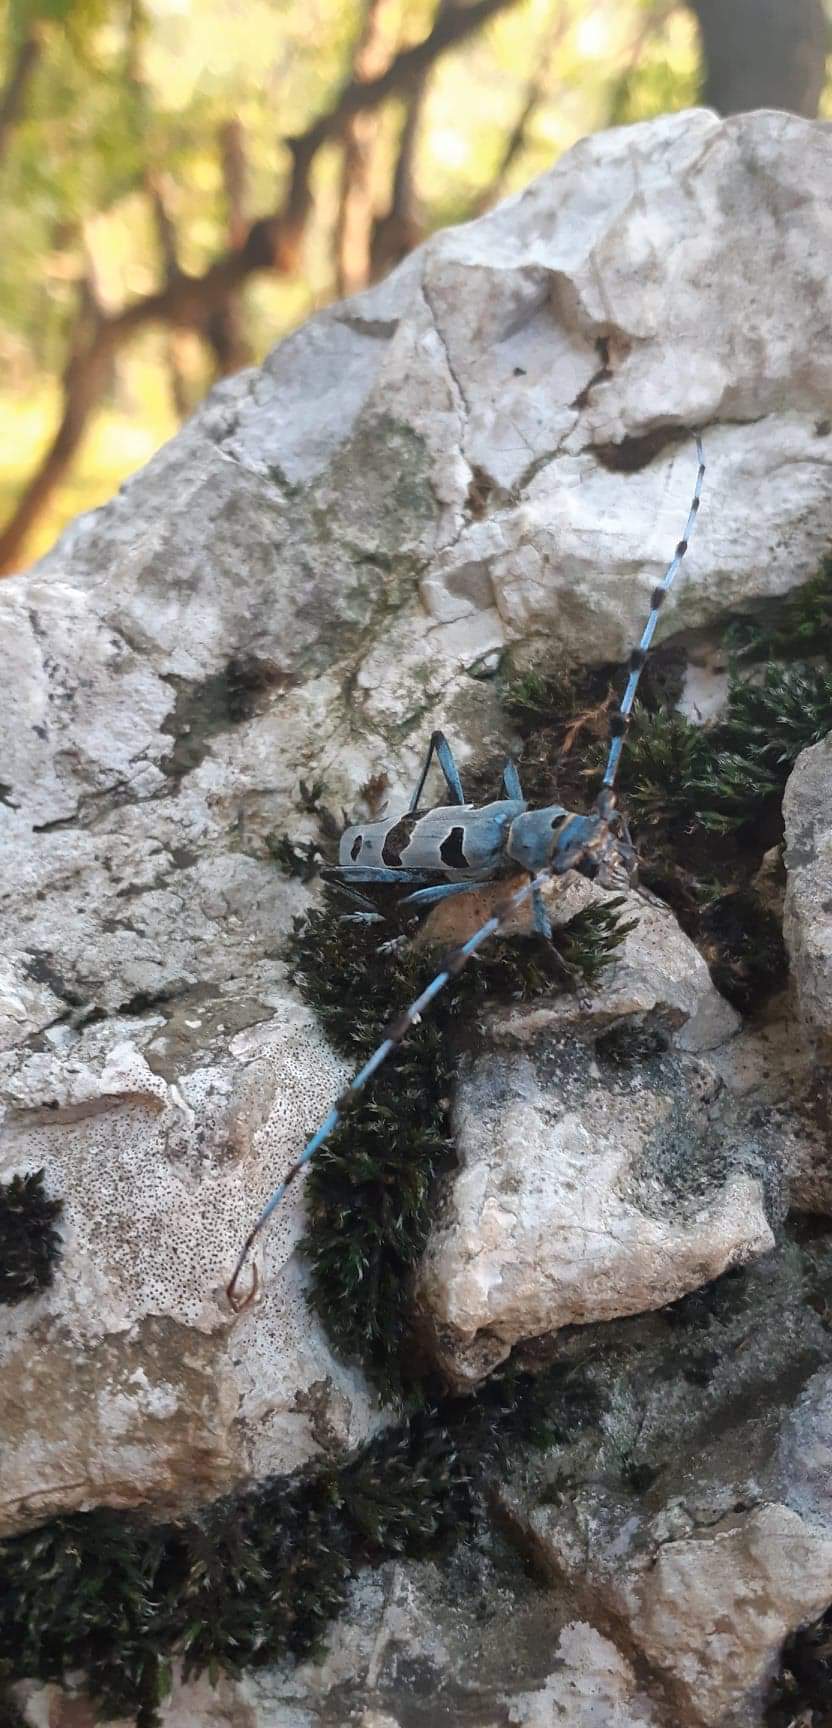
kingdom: Animalia
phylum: Arthropoda
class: Insecta
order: Coleoptera
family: Cerambycidae
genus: Rosalia
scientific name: Rosalia alpina
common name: Rosalia longicorn
